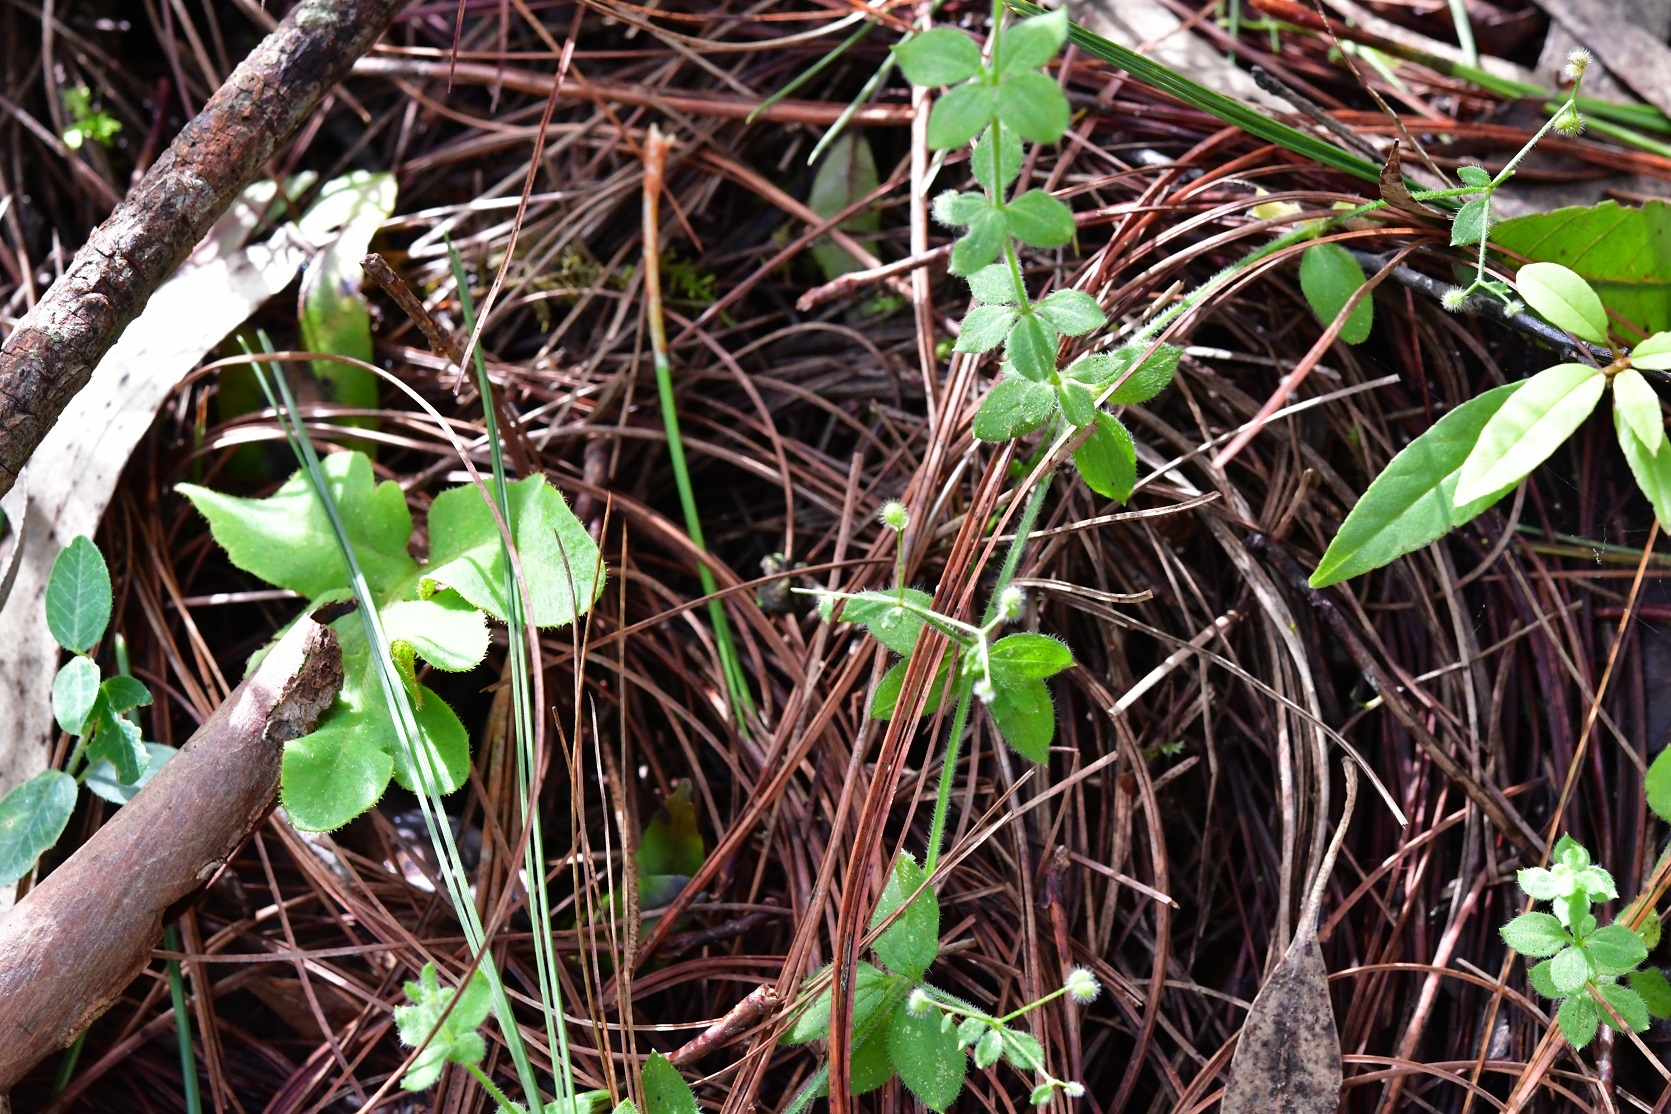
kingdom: Plantae
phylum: Tracheophyta
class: Magnoliopsida
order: Gentianales
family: Rubiaceae
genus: Galium
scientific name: Galium uncinulatum
